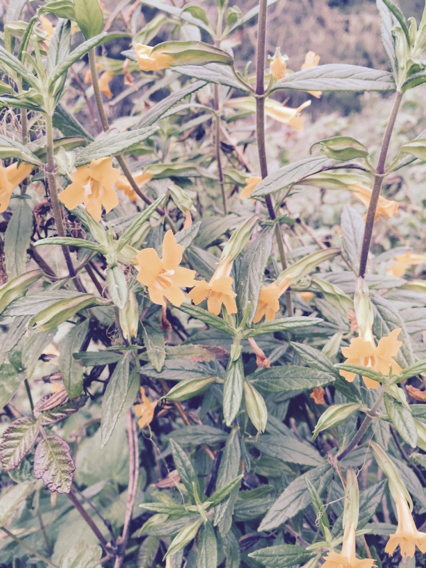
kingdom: Plantae
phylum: Tracheophyta
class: Magnoliopsida
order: Lamiales
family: Phrymaceae
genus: Diplacus
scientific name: Diplacus aurantiacus
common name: Bush monkey-flower
